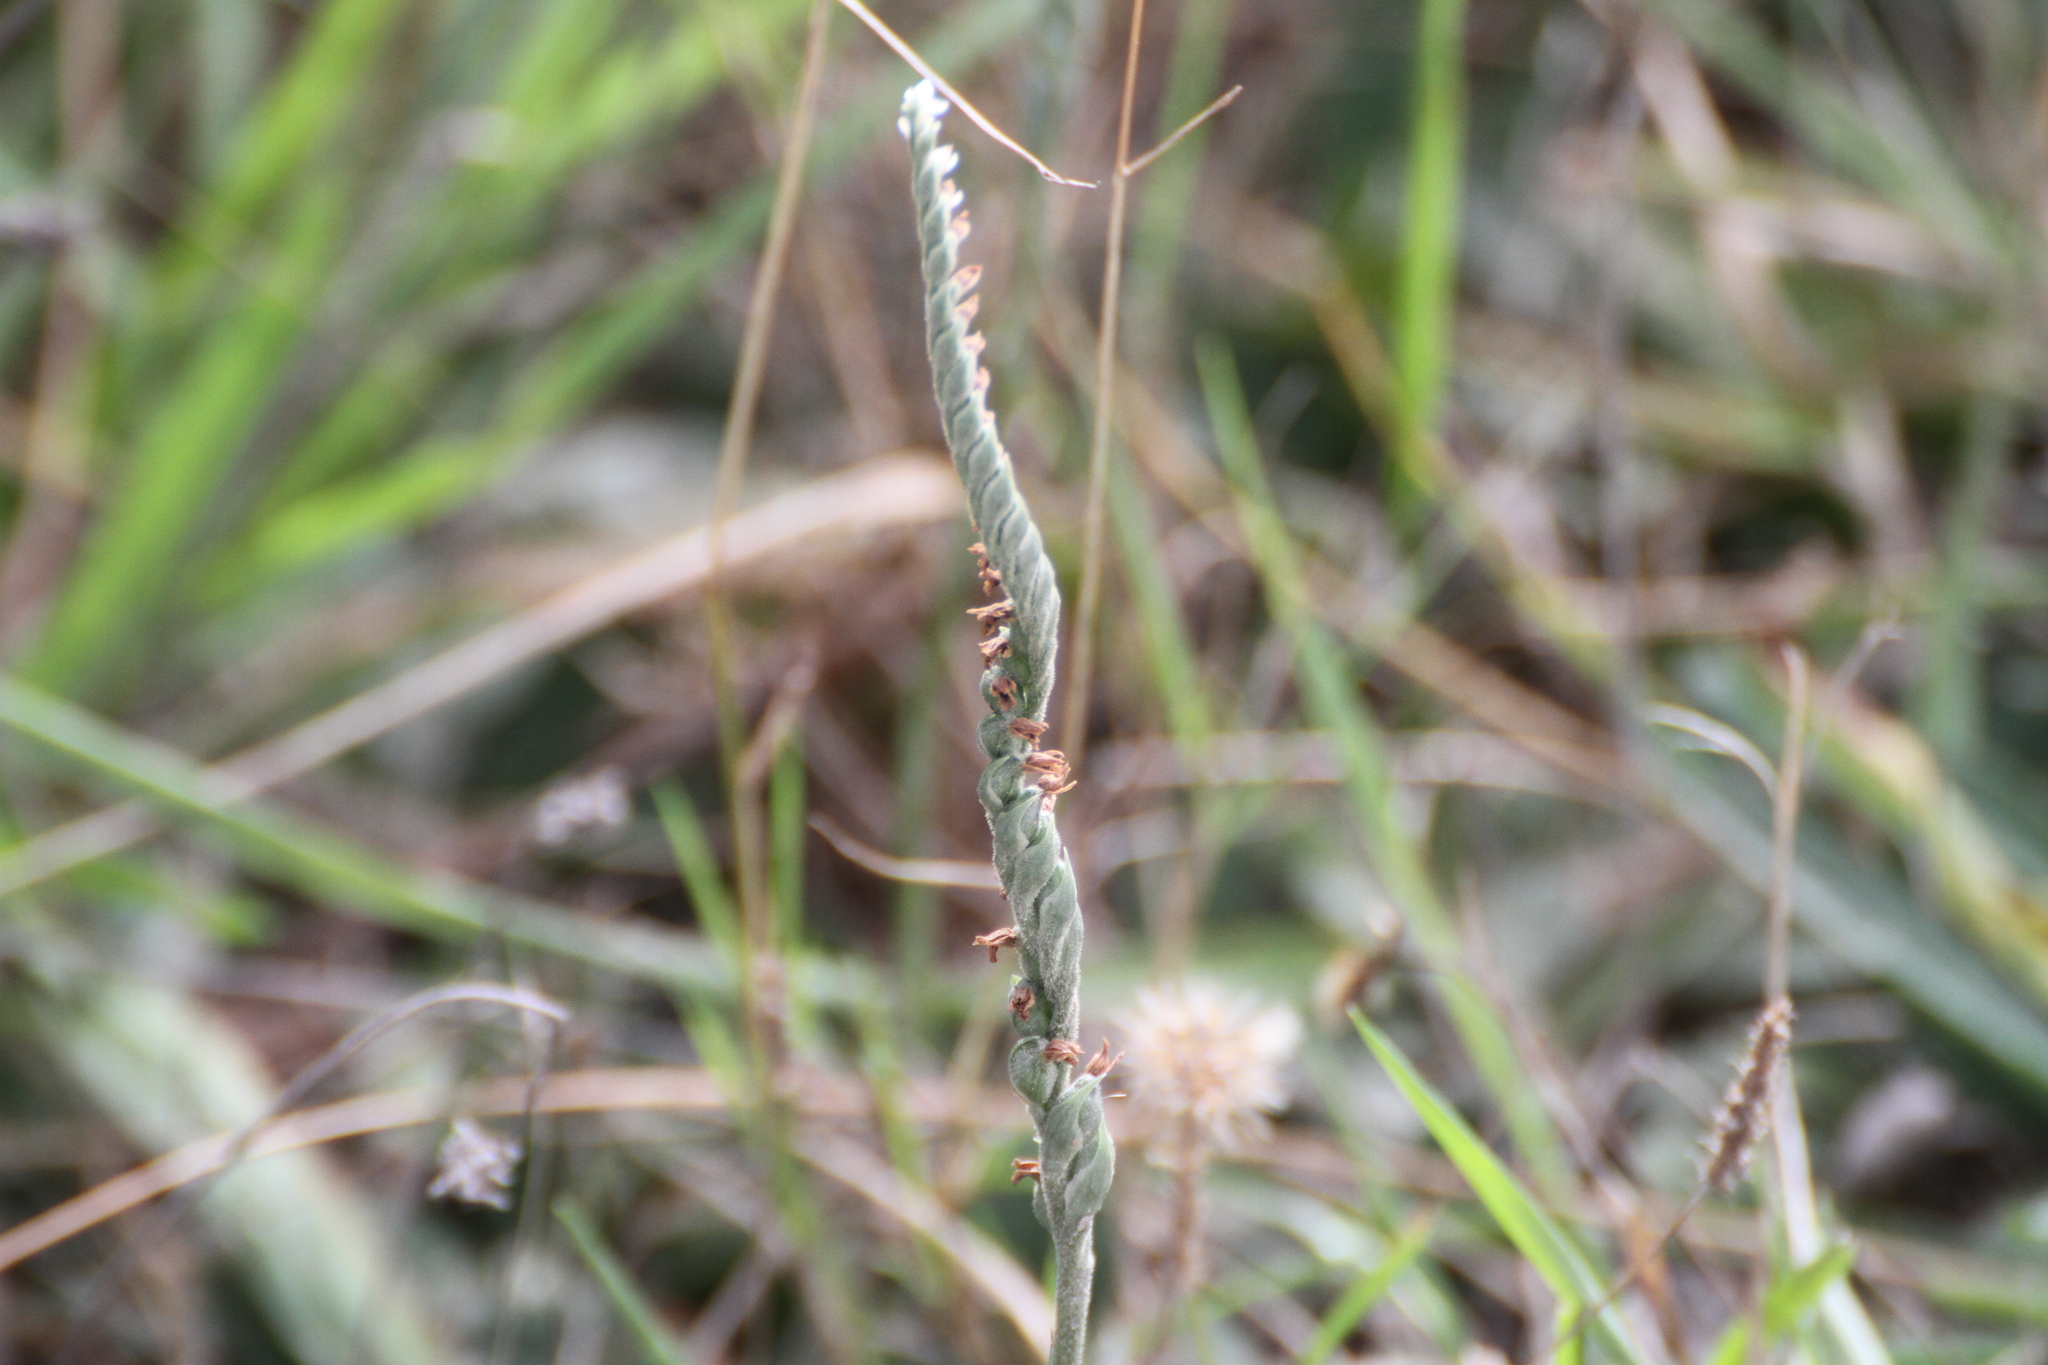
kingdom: Plantae
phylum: Tracheophyta
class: Liliopsida
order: Asparagales
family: Orchidaceae
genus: Spiranthes
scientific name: Spiranthes spiralis
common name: Autumn lady's-tresses
